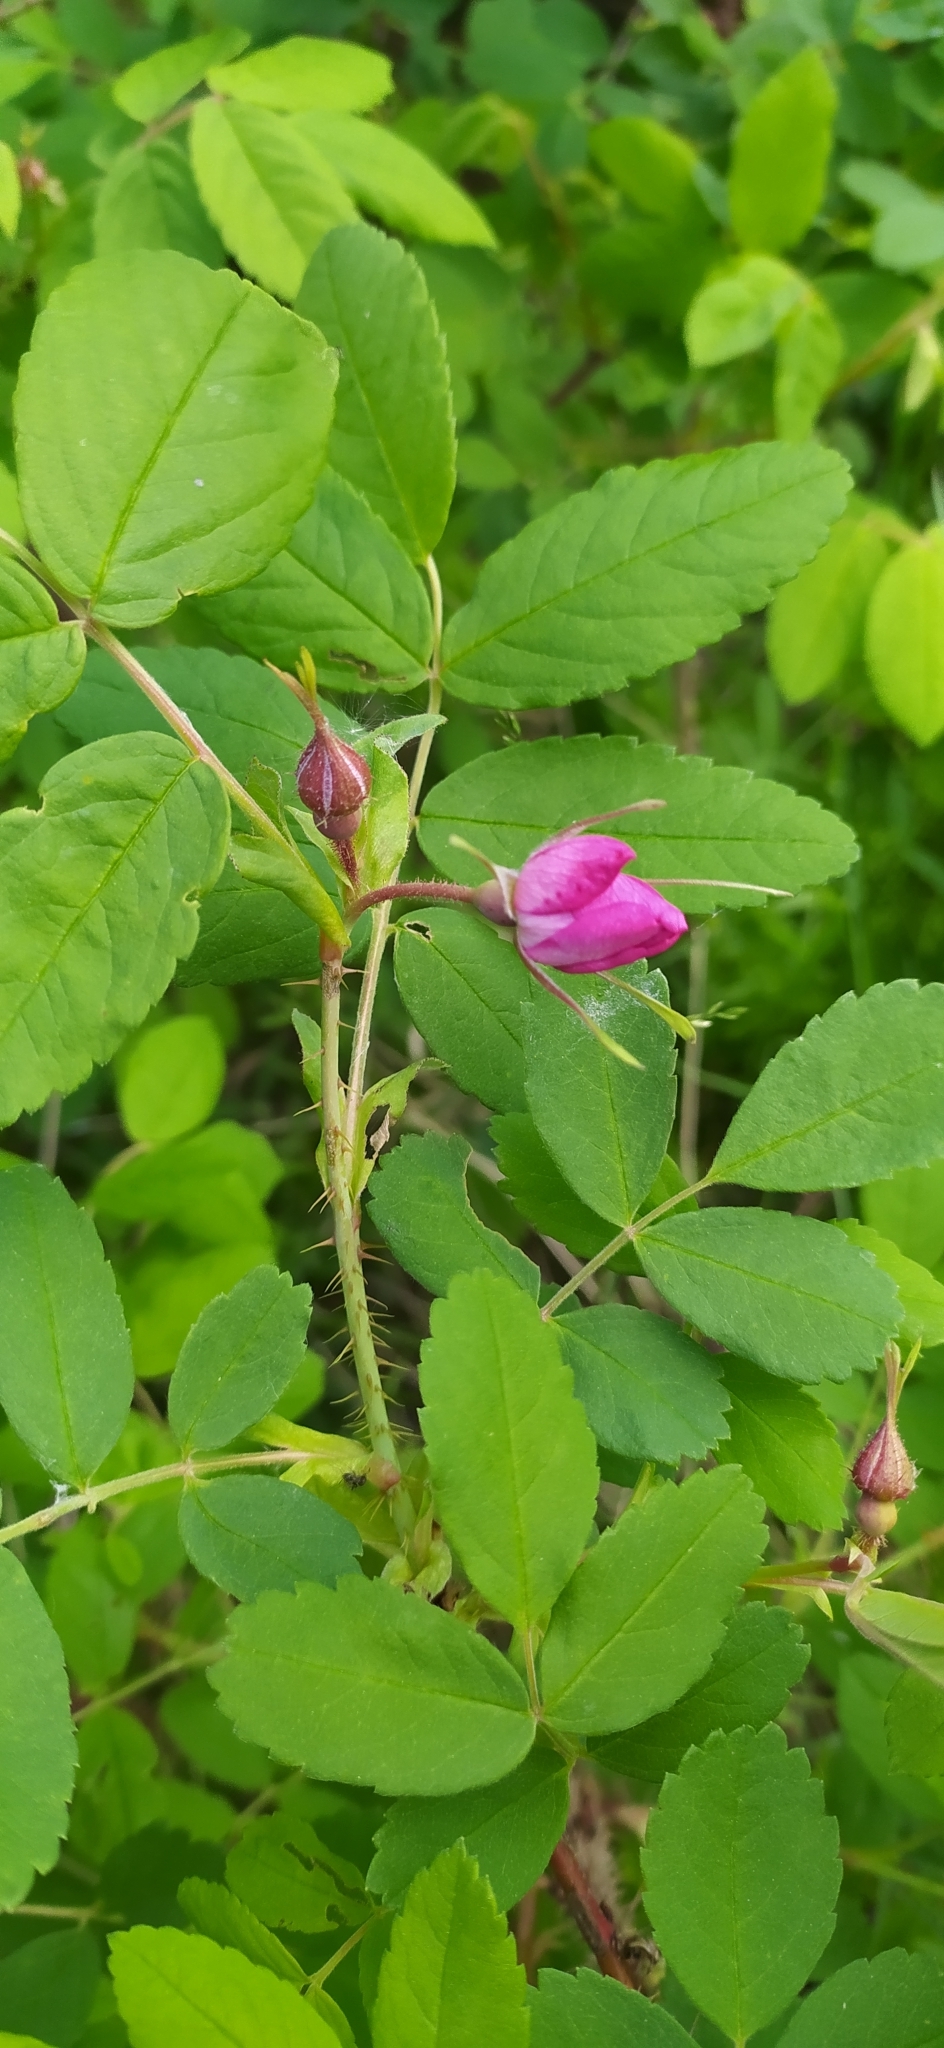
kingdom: Plantae
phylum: Tracheophyta
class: Magnoliopsida
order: Rosales
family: Rosaceae
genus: Rosa
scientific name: Rosa acicularis
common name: Prickly rose
